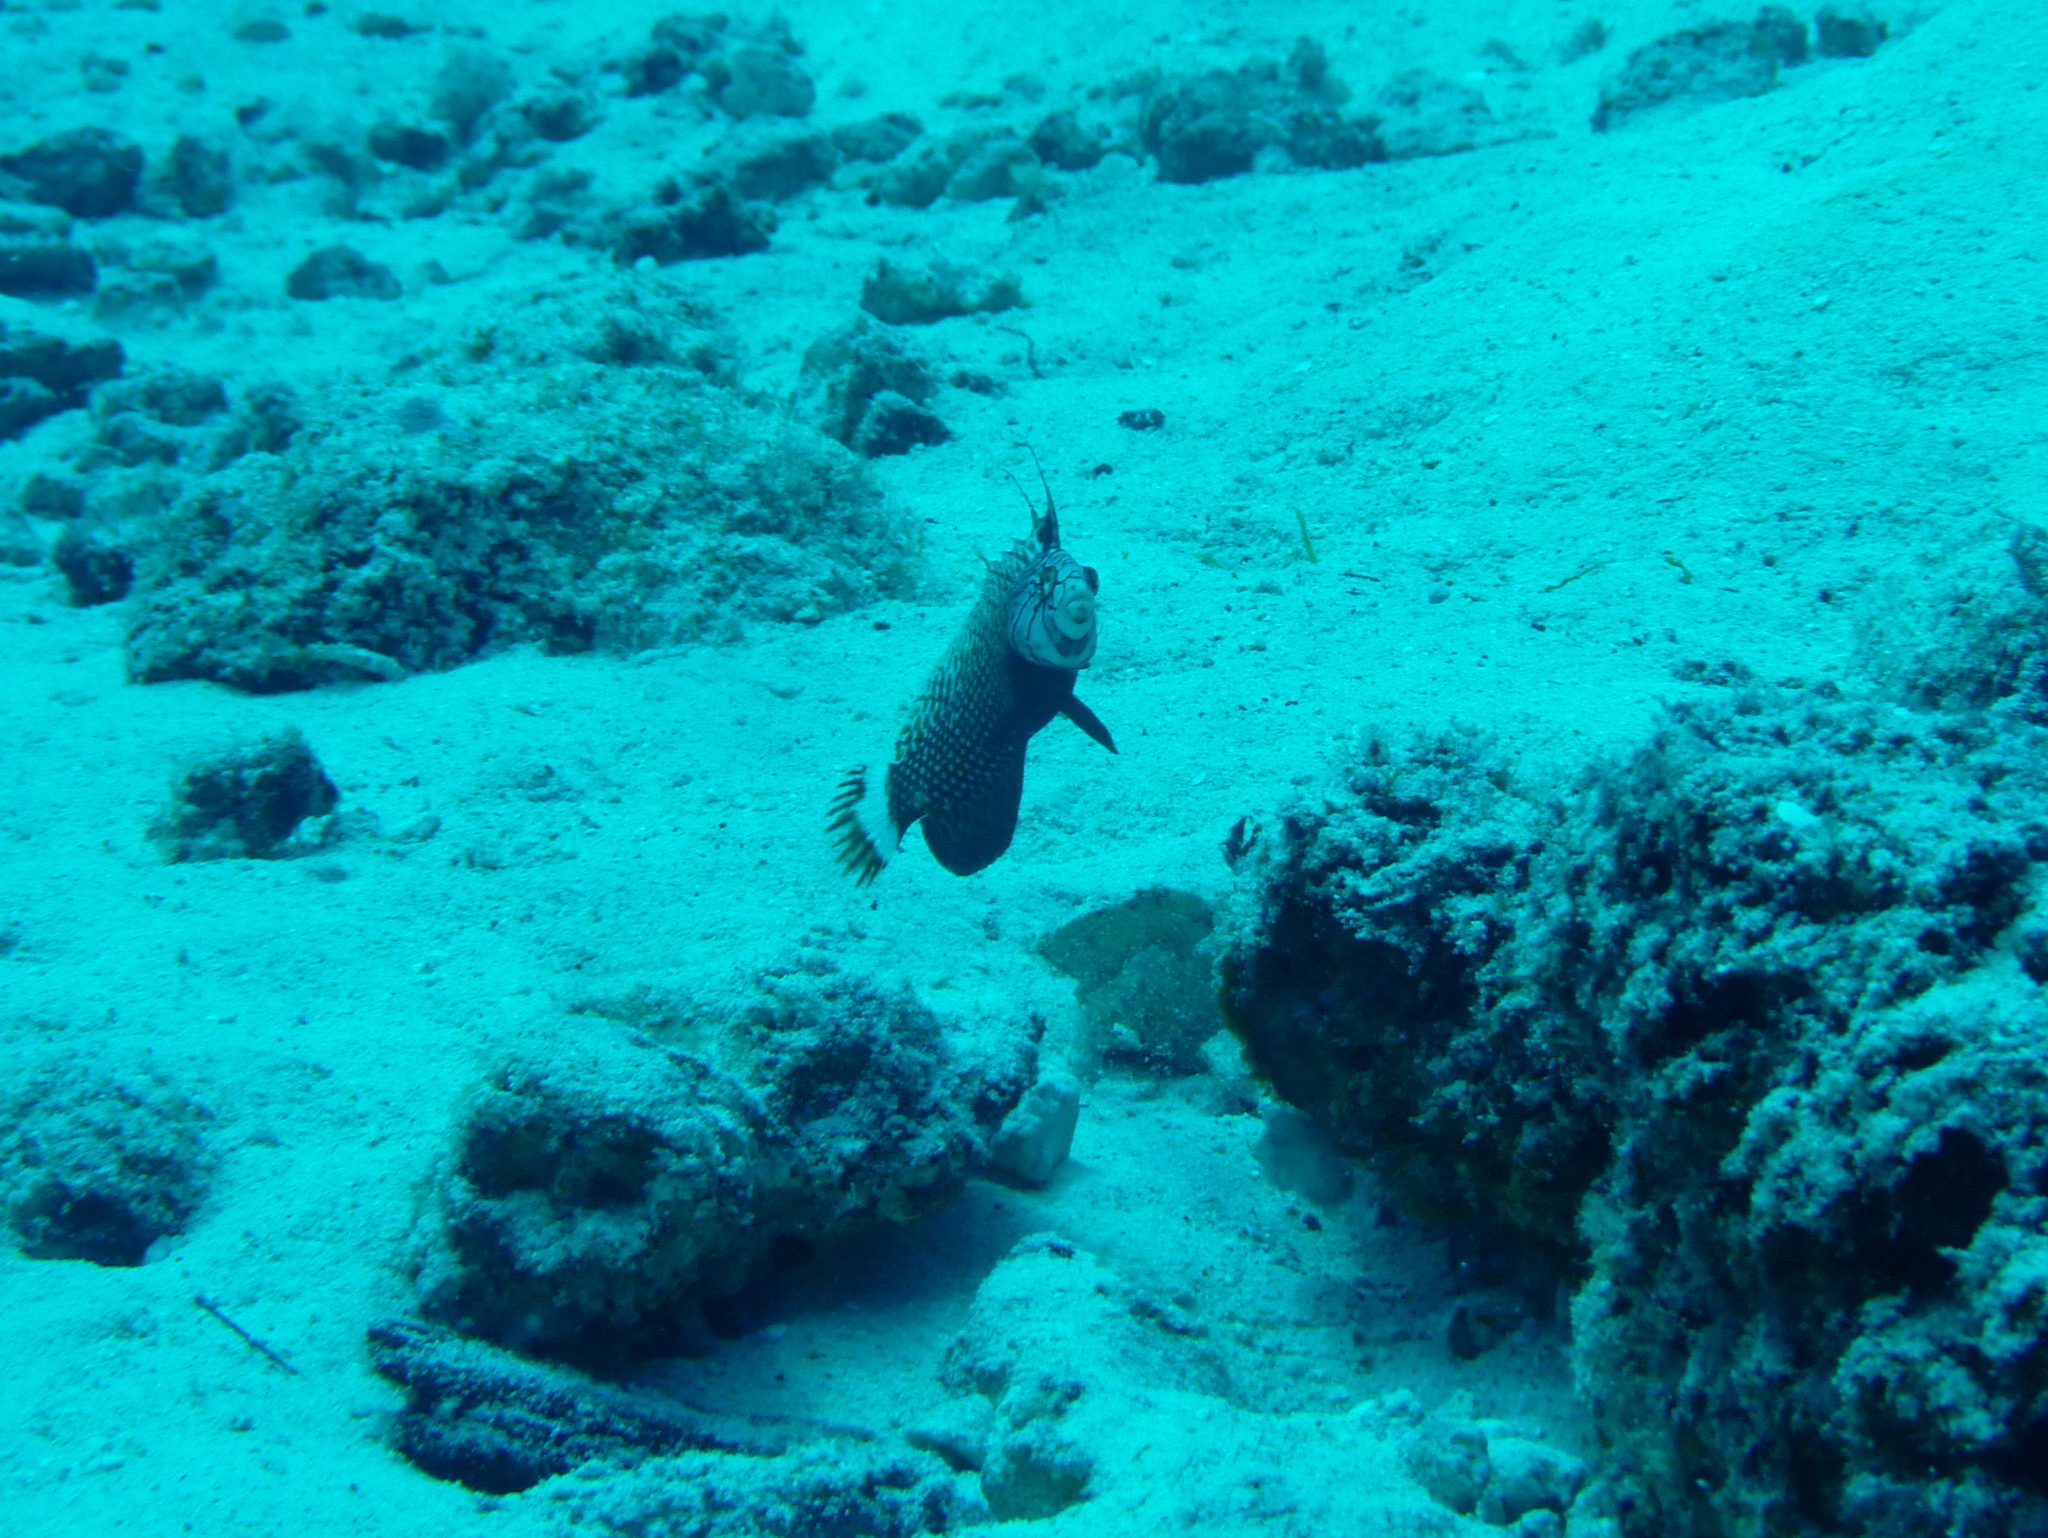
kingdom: Animalia
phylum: Chordata
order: Perciformes
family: Labridae
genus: Novaculichthys
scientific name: Novaculichthys taeniourus
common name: Rockmover wrasse
